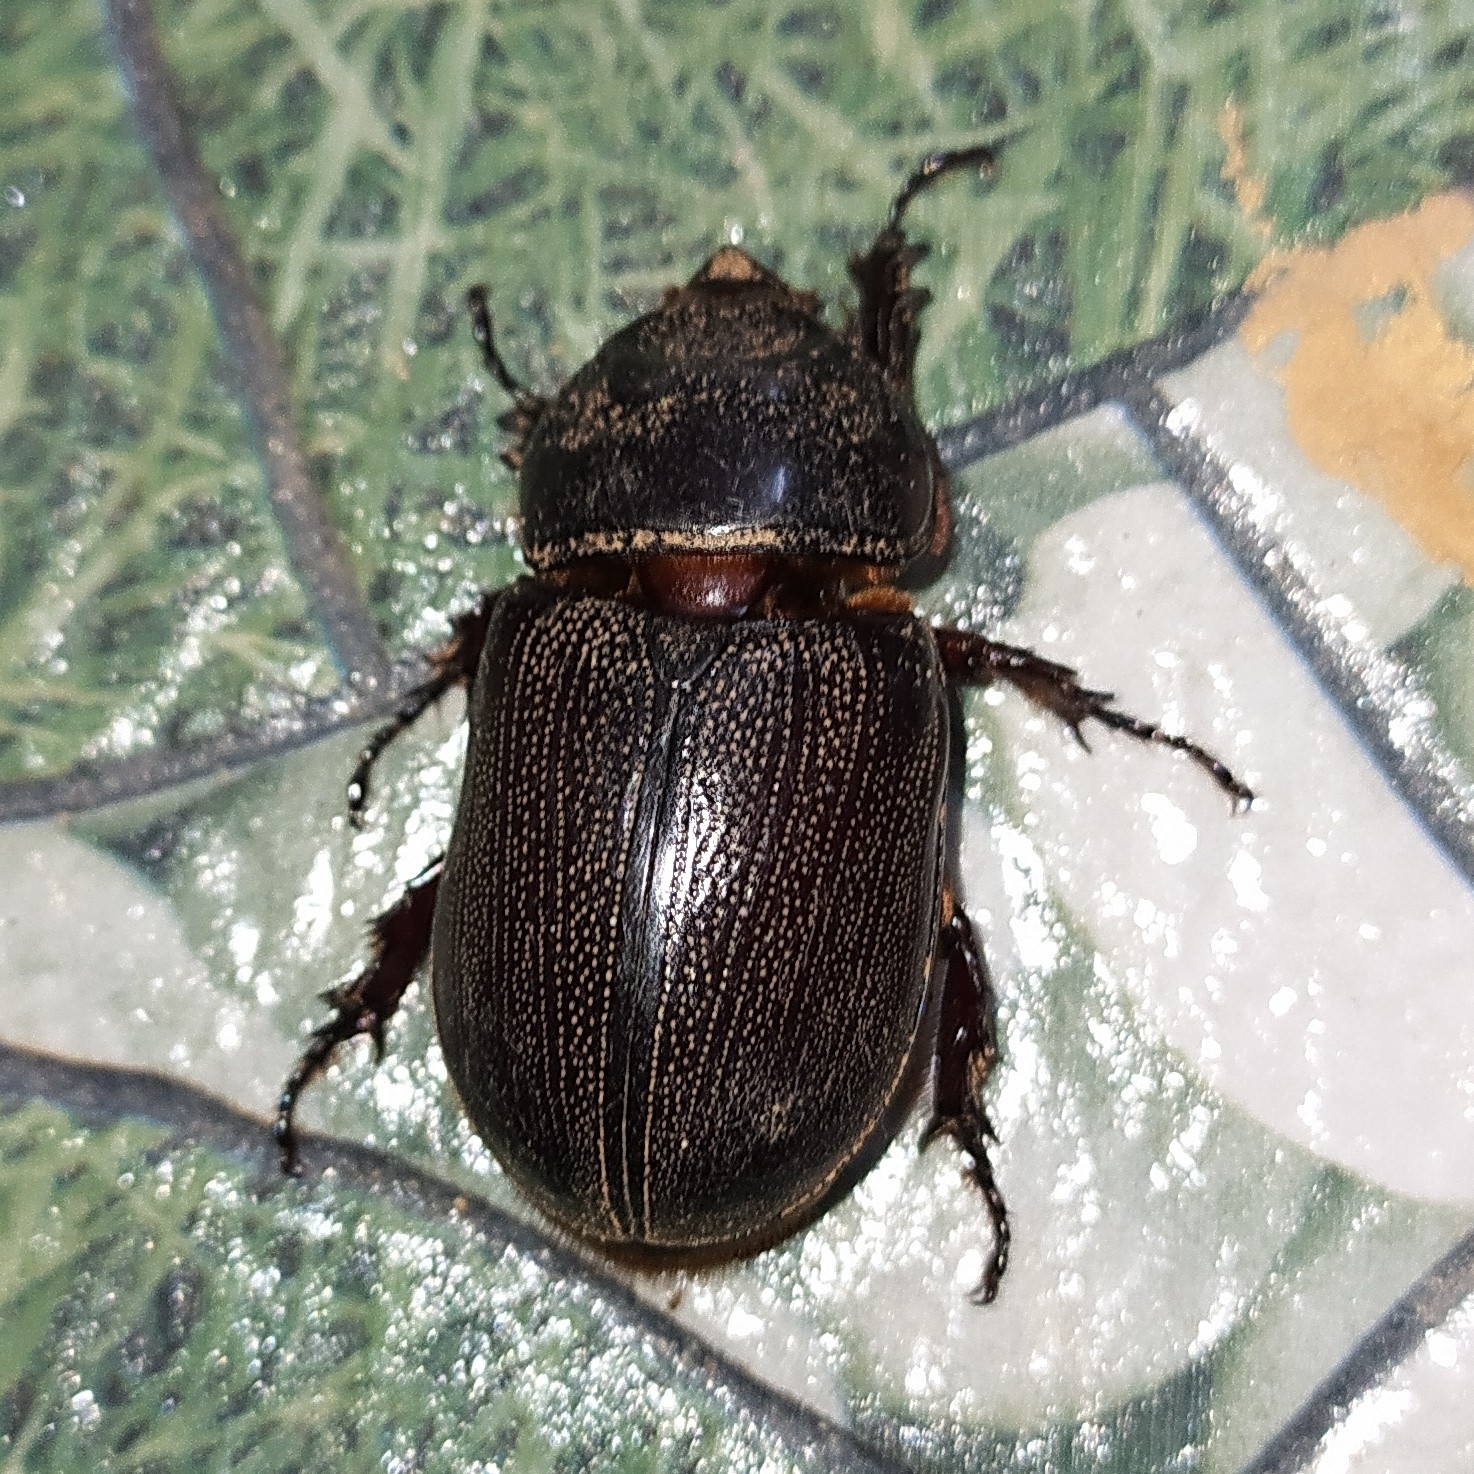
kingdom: Animalia
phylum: Arthropoda
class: Insecta
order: Coleoptera
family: Scarabaeidae
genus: Oryctes
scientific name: Oryctes rhinoceros
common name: Coconut rhinoceros beetle
